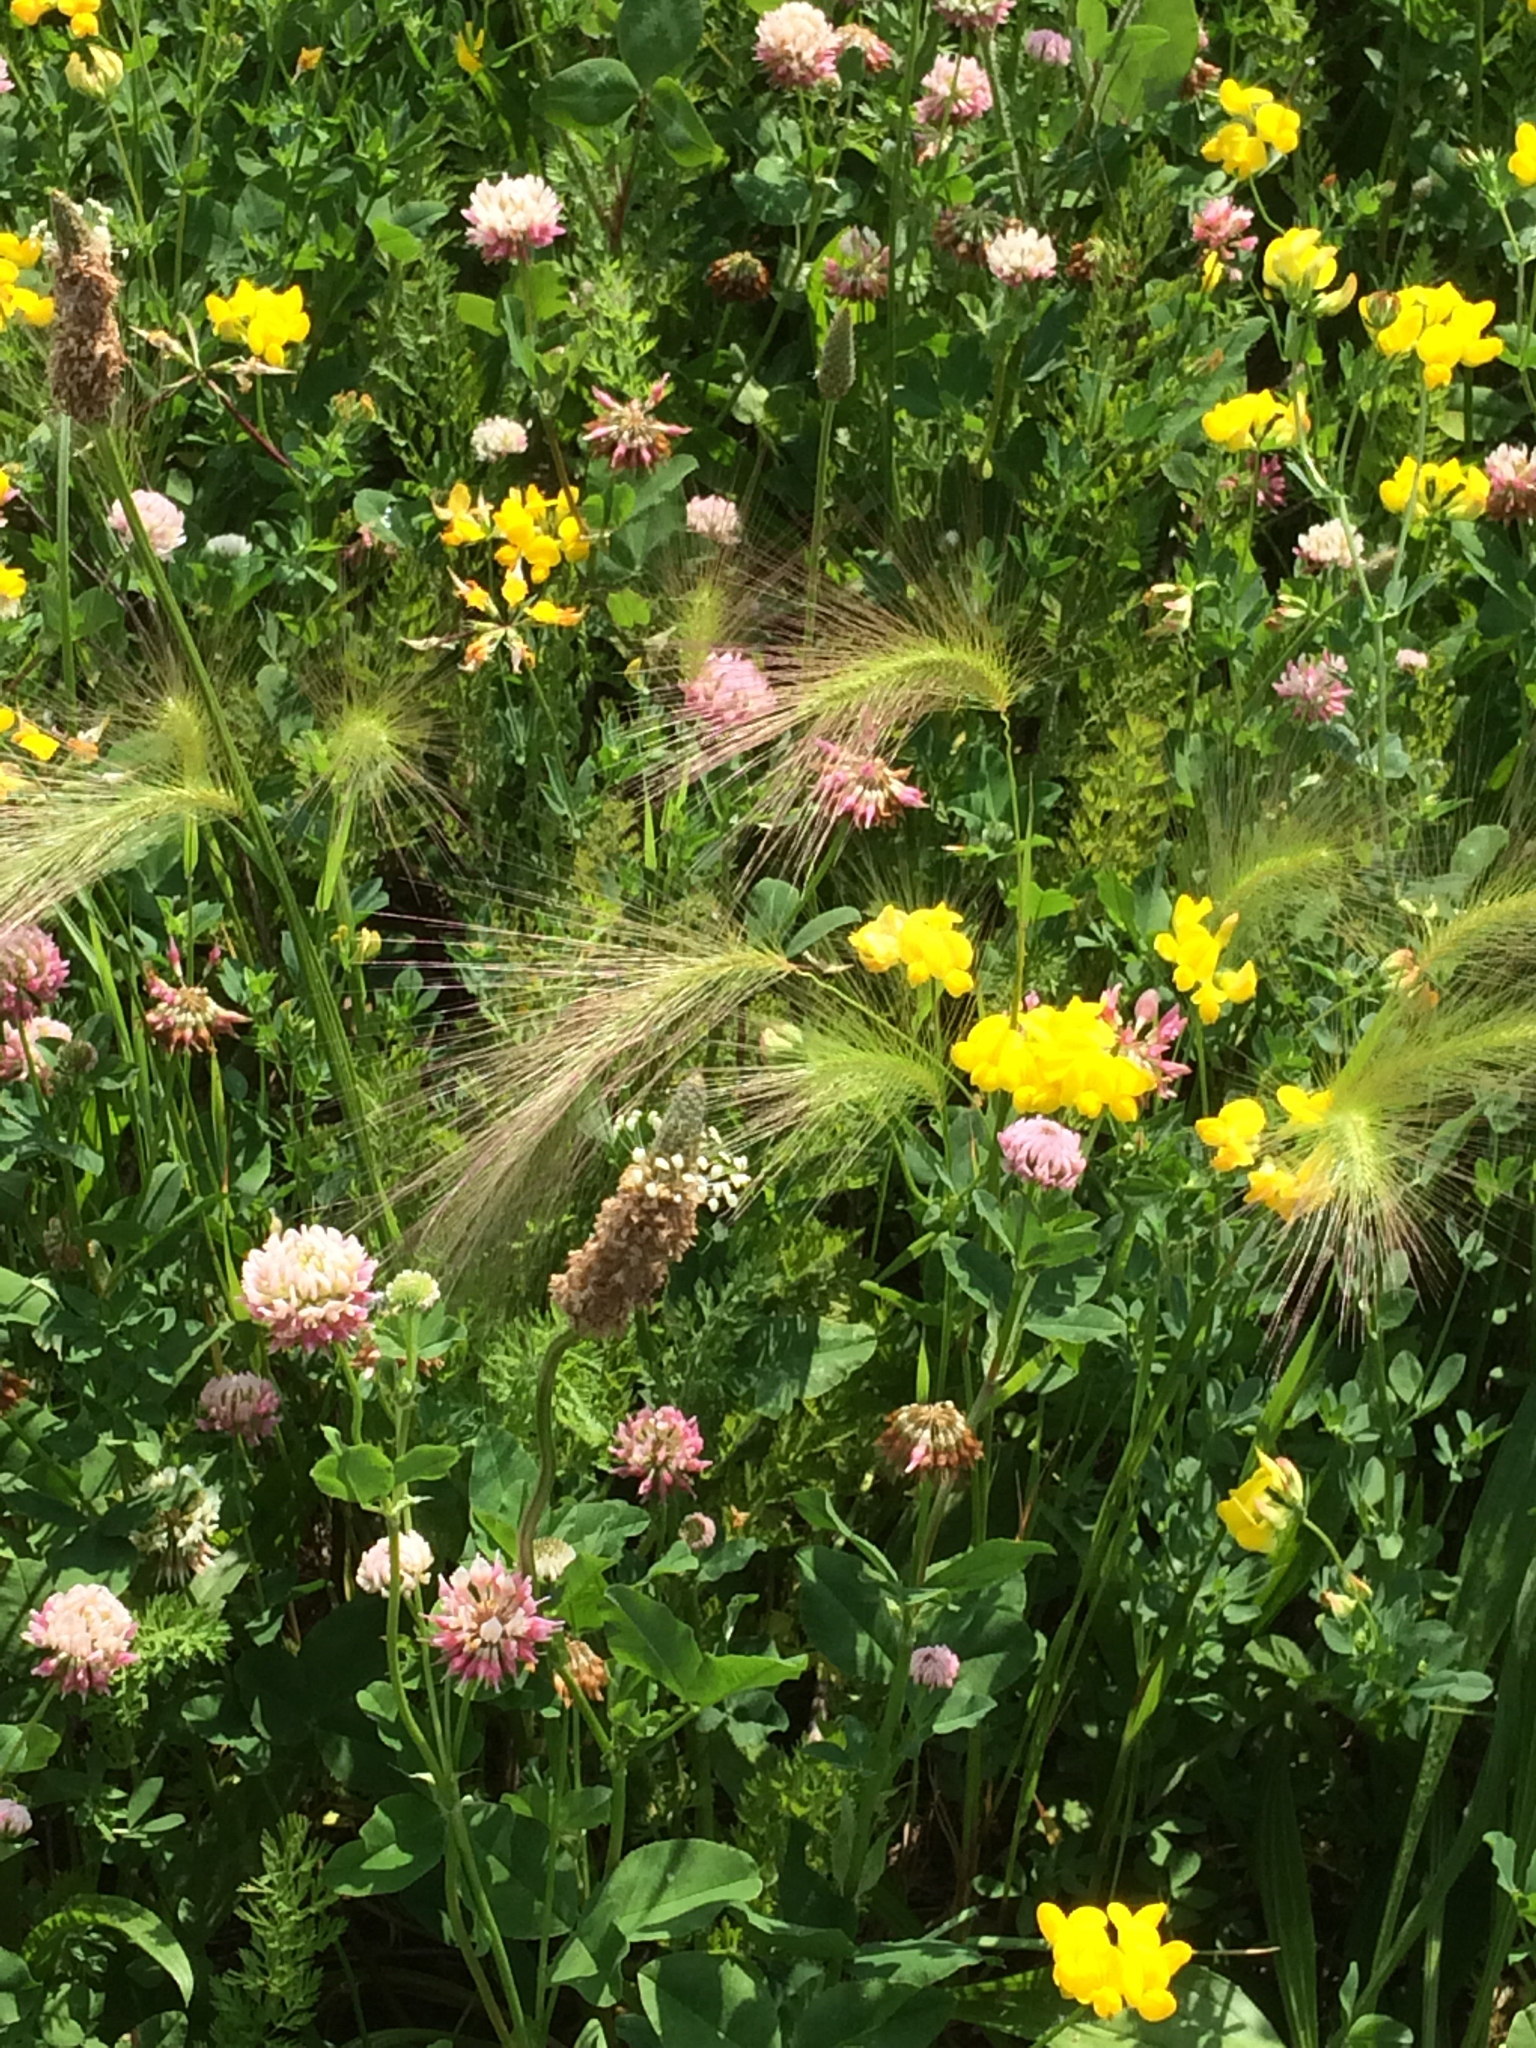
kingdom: Plantae
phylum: Tracheophyta
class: Liliopsida
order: Poales
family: Poaceae
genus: Hordeum
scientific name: Hordeum jubatum
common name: Foxtail barley
